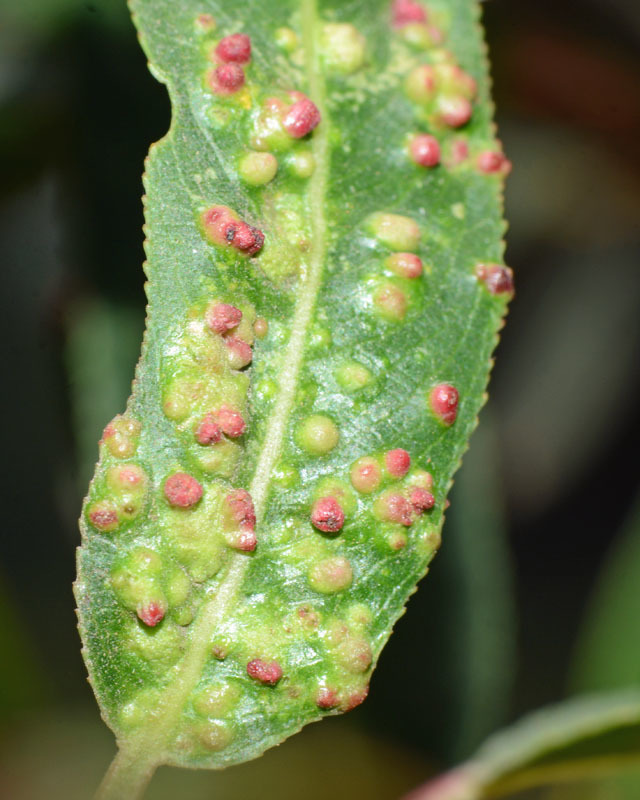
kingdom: Animalia
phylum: Arthropoda
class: Arachnida
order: Trombidiformes
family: Eriophyidae
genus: Aculus
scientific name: Aculus tetanothrix
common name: Willow bead gall mite
